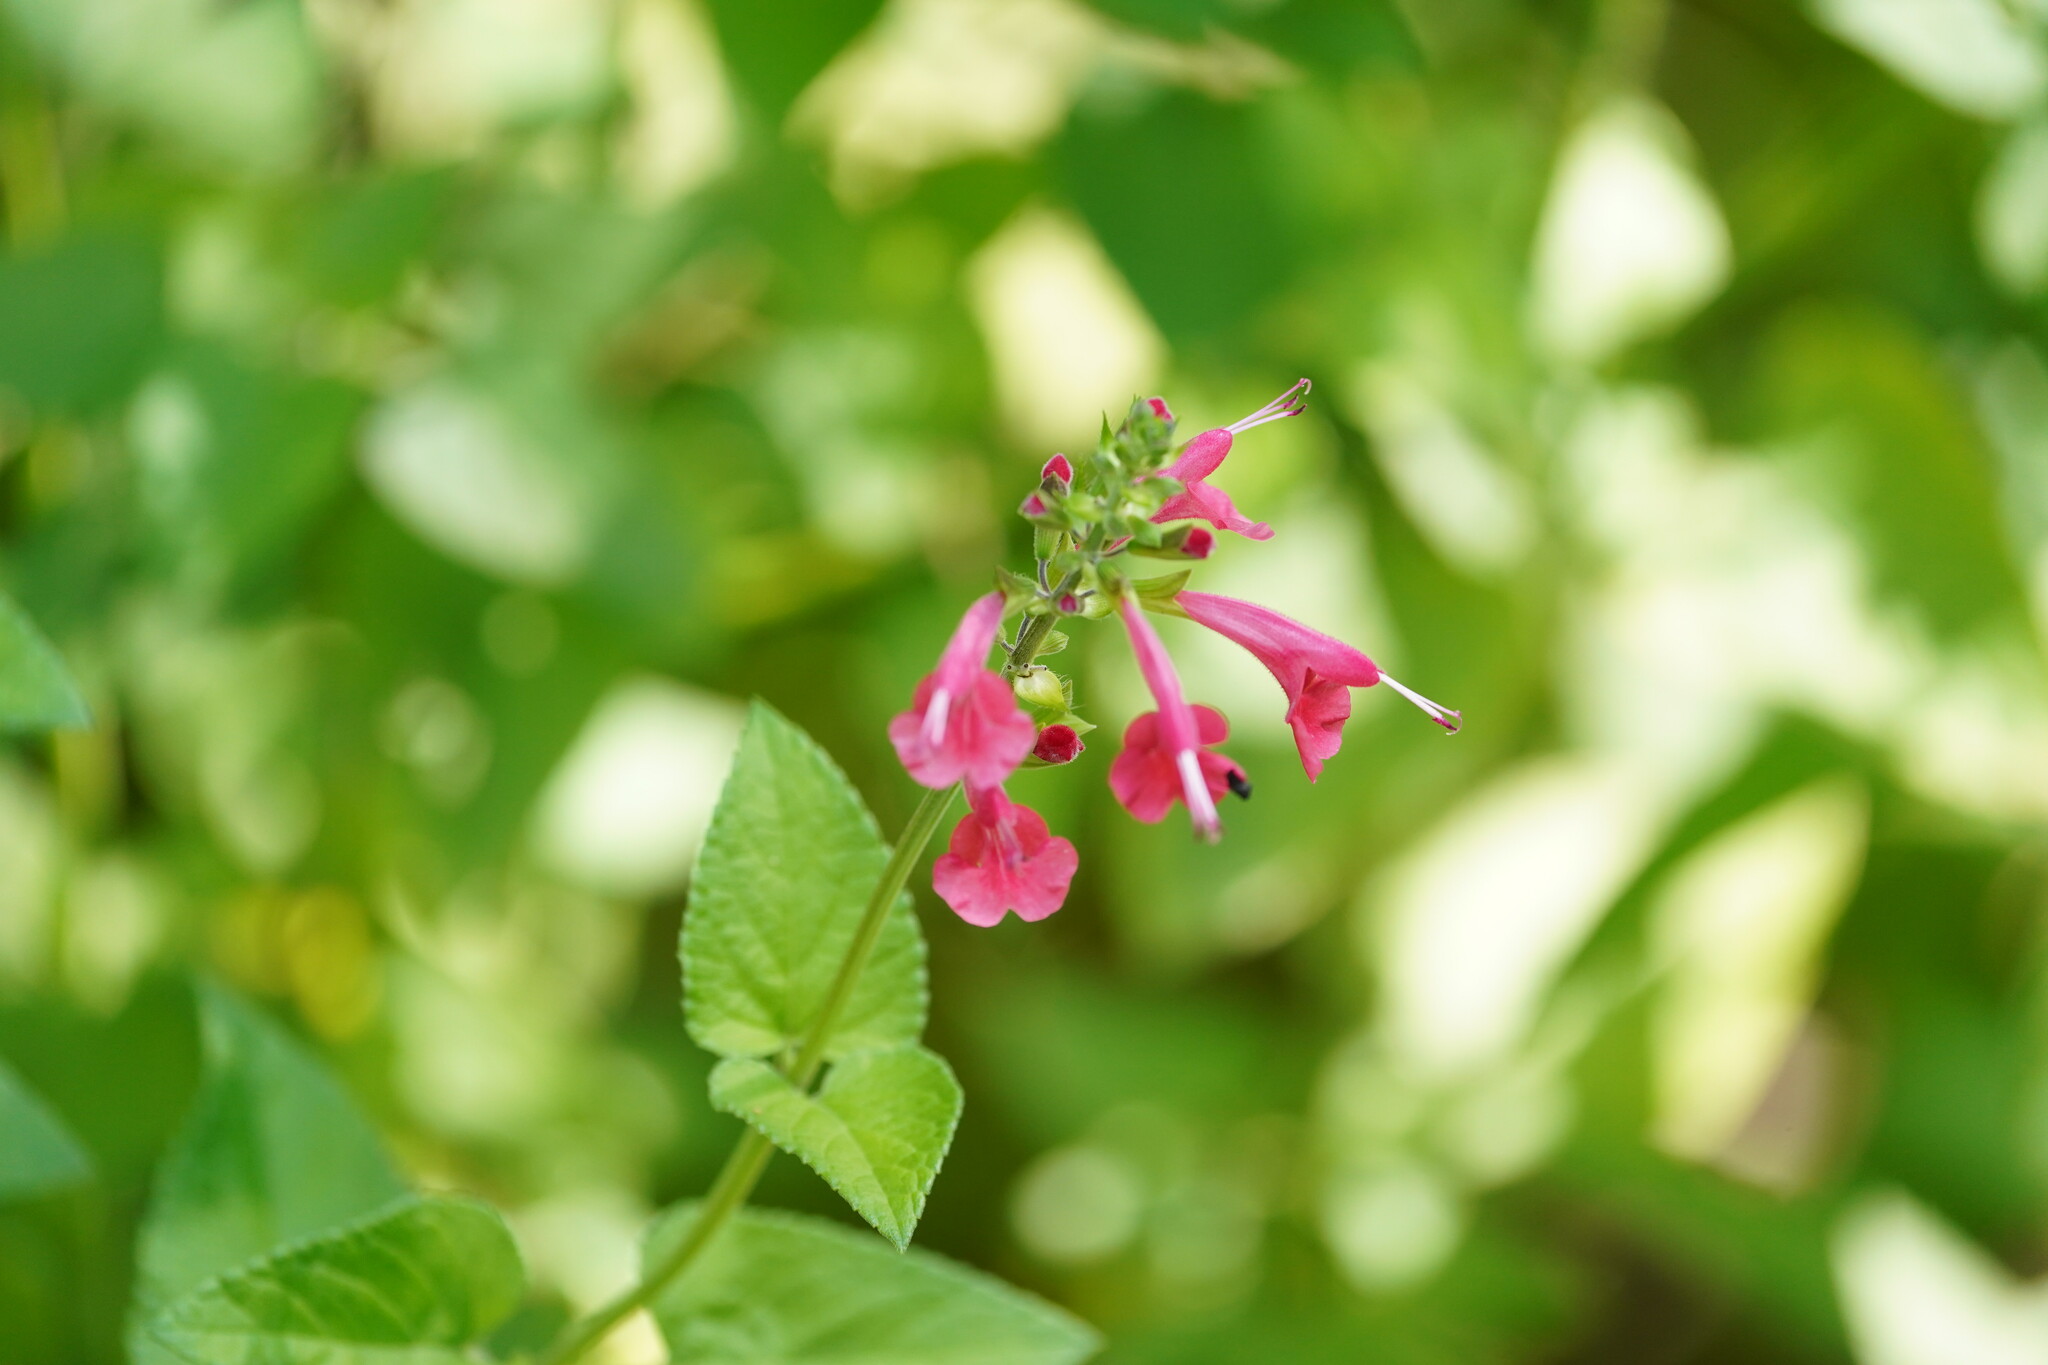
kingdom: Plantae
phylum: Tracheophyta
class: Magnoliopsida
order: Lamiales
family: Lamiaceae
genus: Salvia
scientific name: Salvia coccinea
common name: Blood sage
